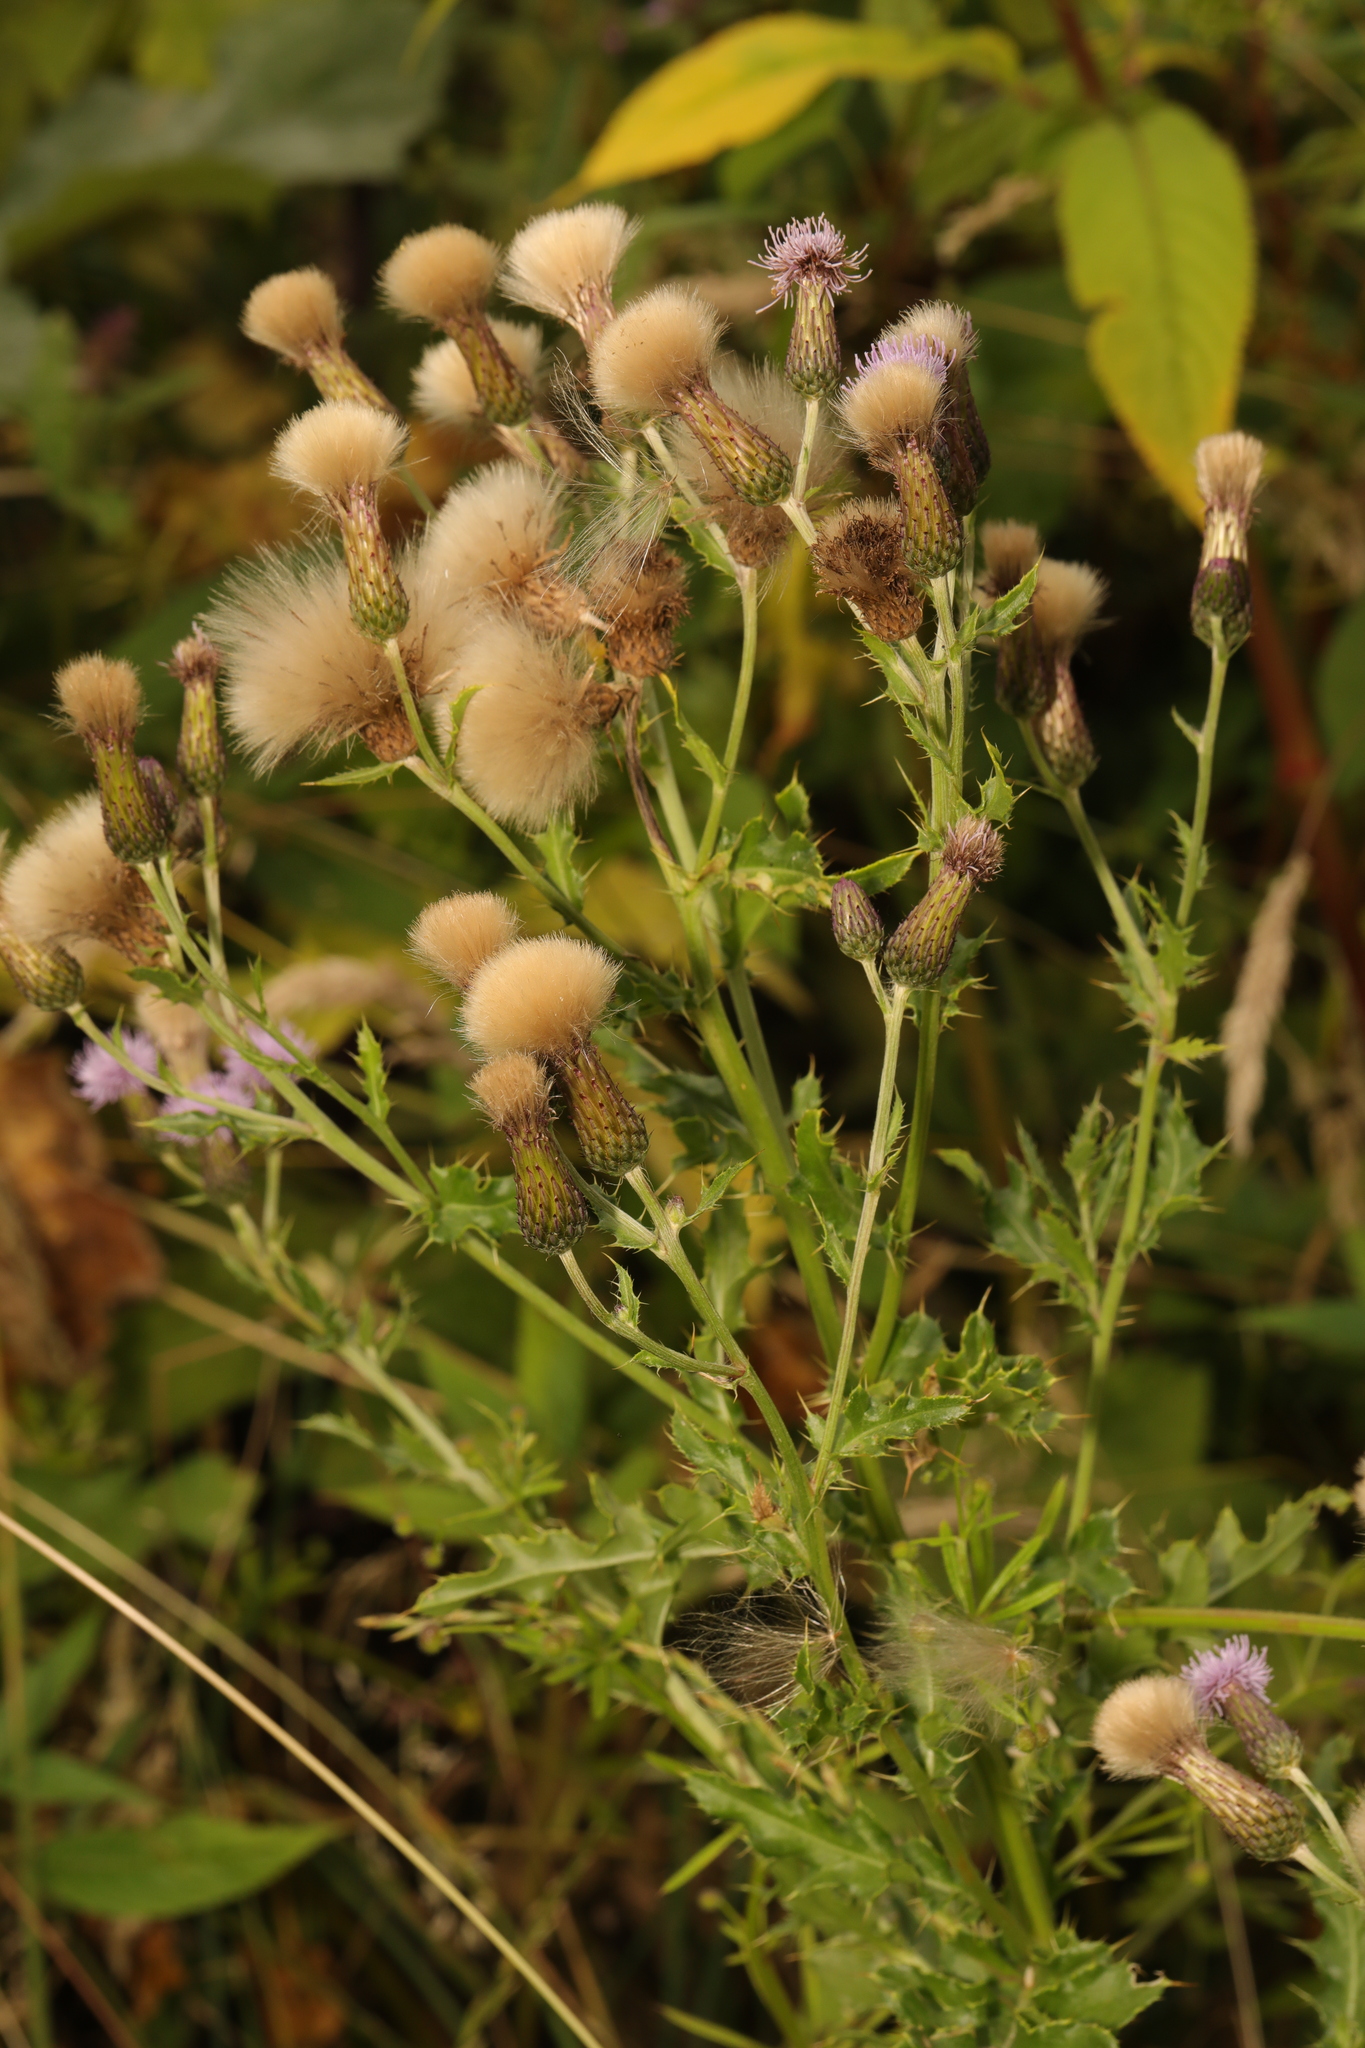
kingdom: Plantae
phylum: Tracheophyta
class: Magnoliopsida
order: Asterales
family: Asteraceae
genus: Cirsium
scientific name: Cirsium arvense
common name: Creeping thistle
